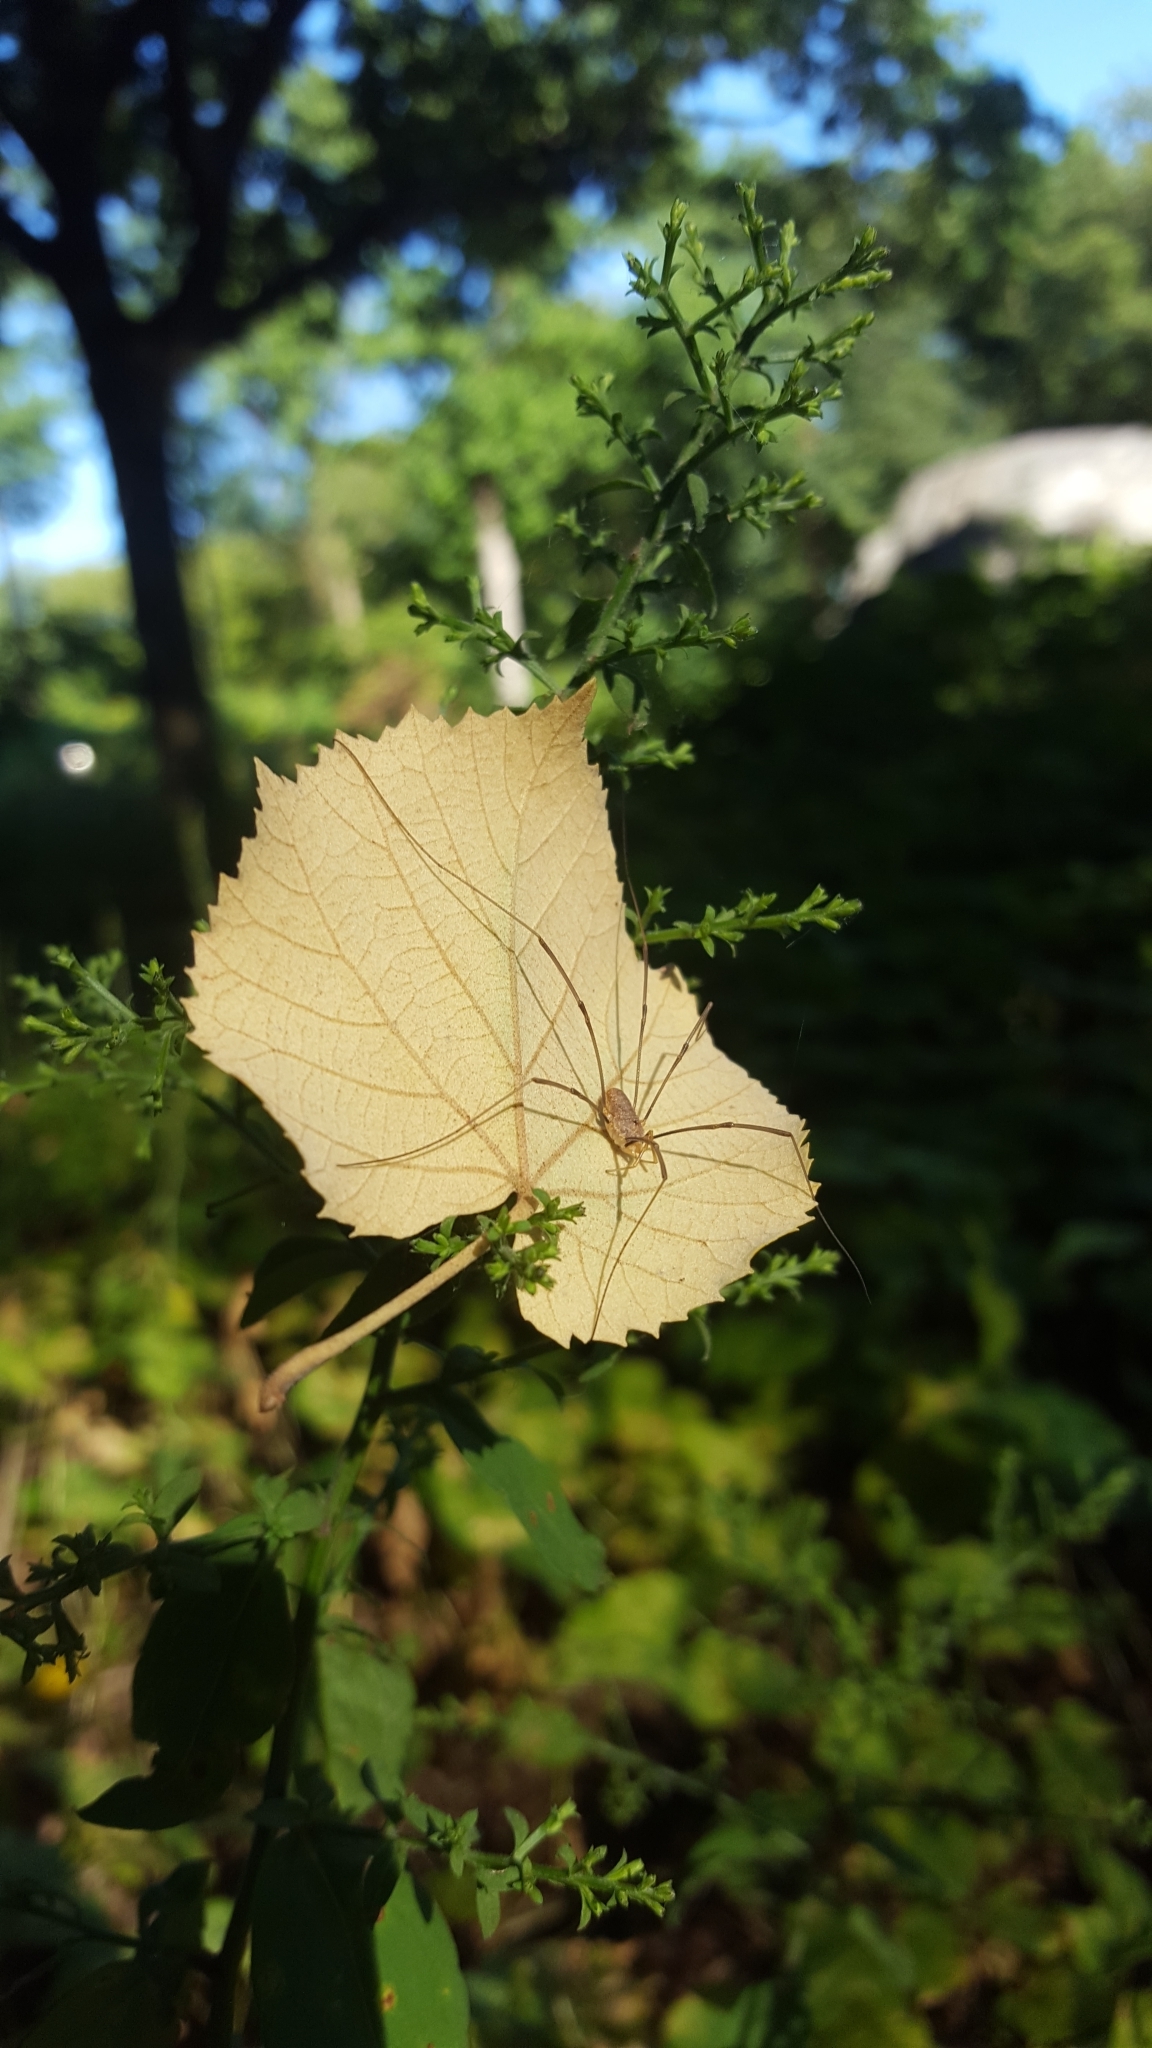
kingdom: Animalia
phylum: Arthropoda
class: Arachnida
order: Opiliones
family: Phalangiidae
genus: Phalangium
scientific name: Phalangium opilio
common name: Daddy longleg
